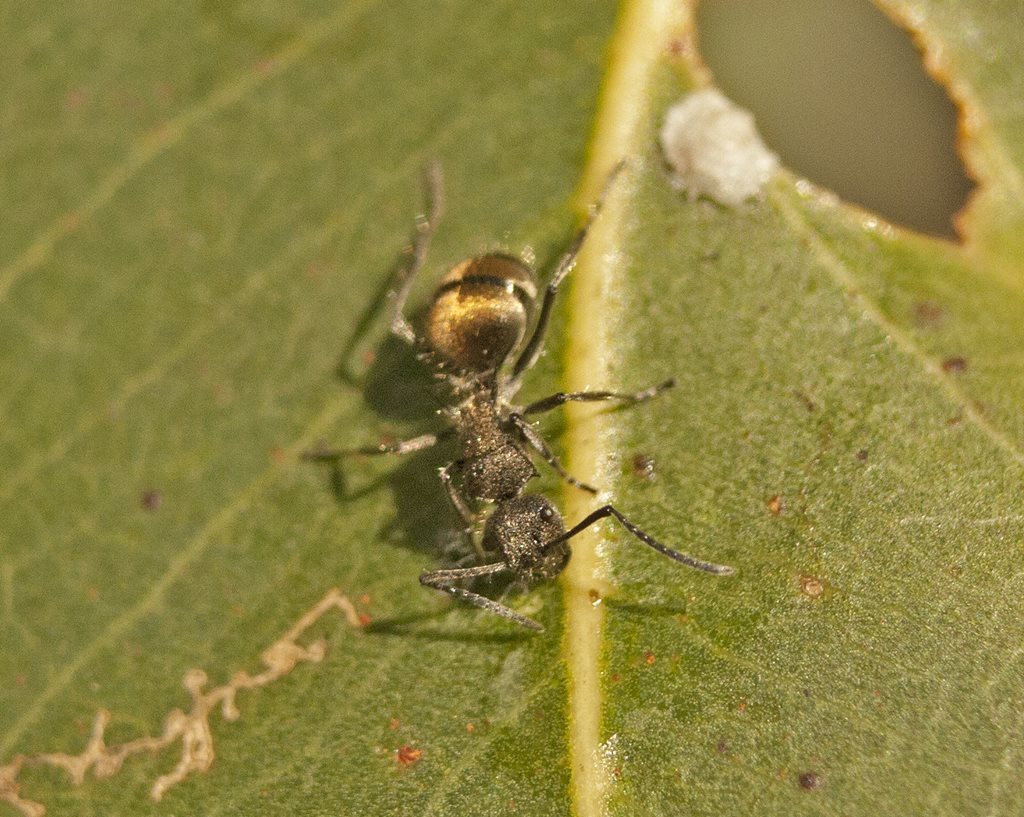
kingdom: Animalia
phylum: Arthropoda
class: Insecta
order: Hymenoptera
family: Formicidae
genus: Polyrhachis
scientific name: Polyrhachis aurea
